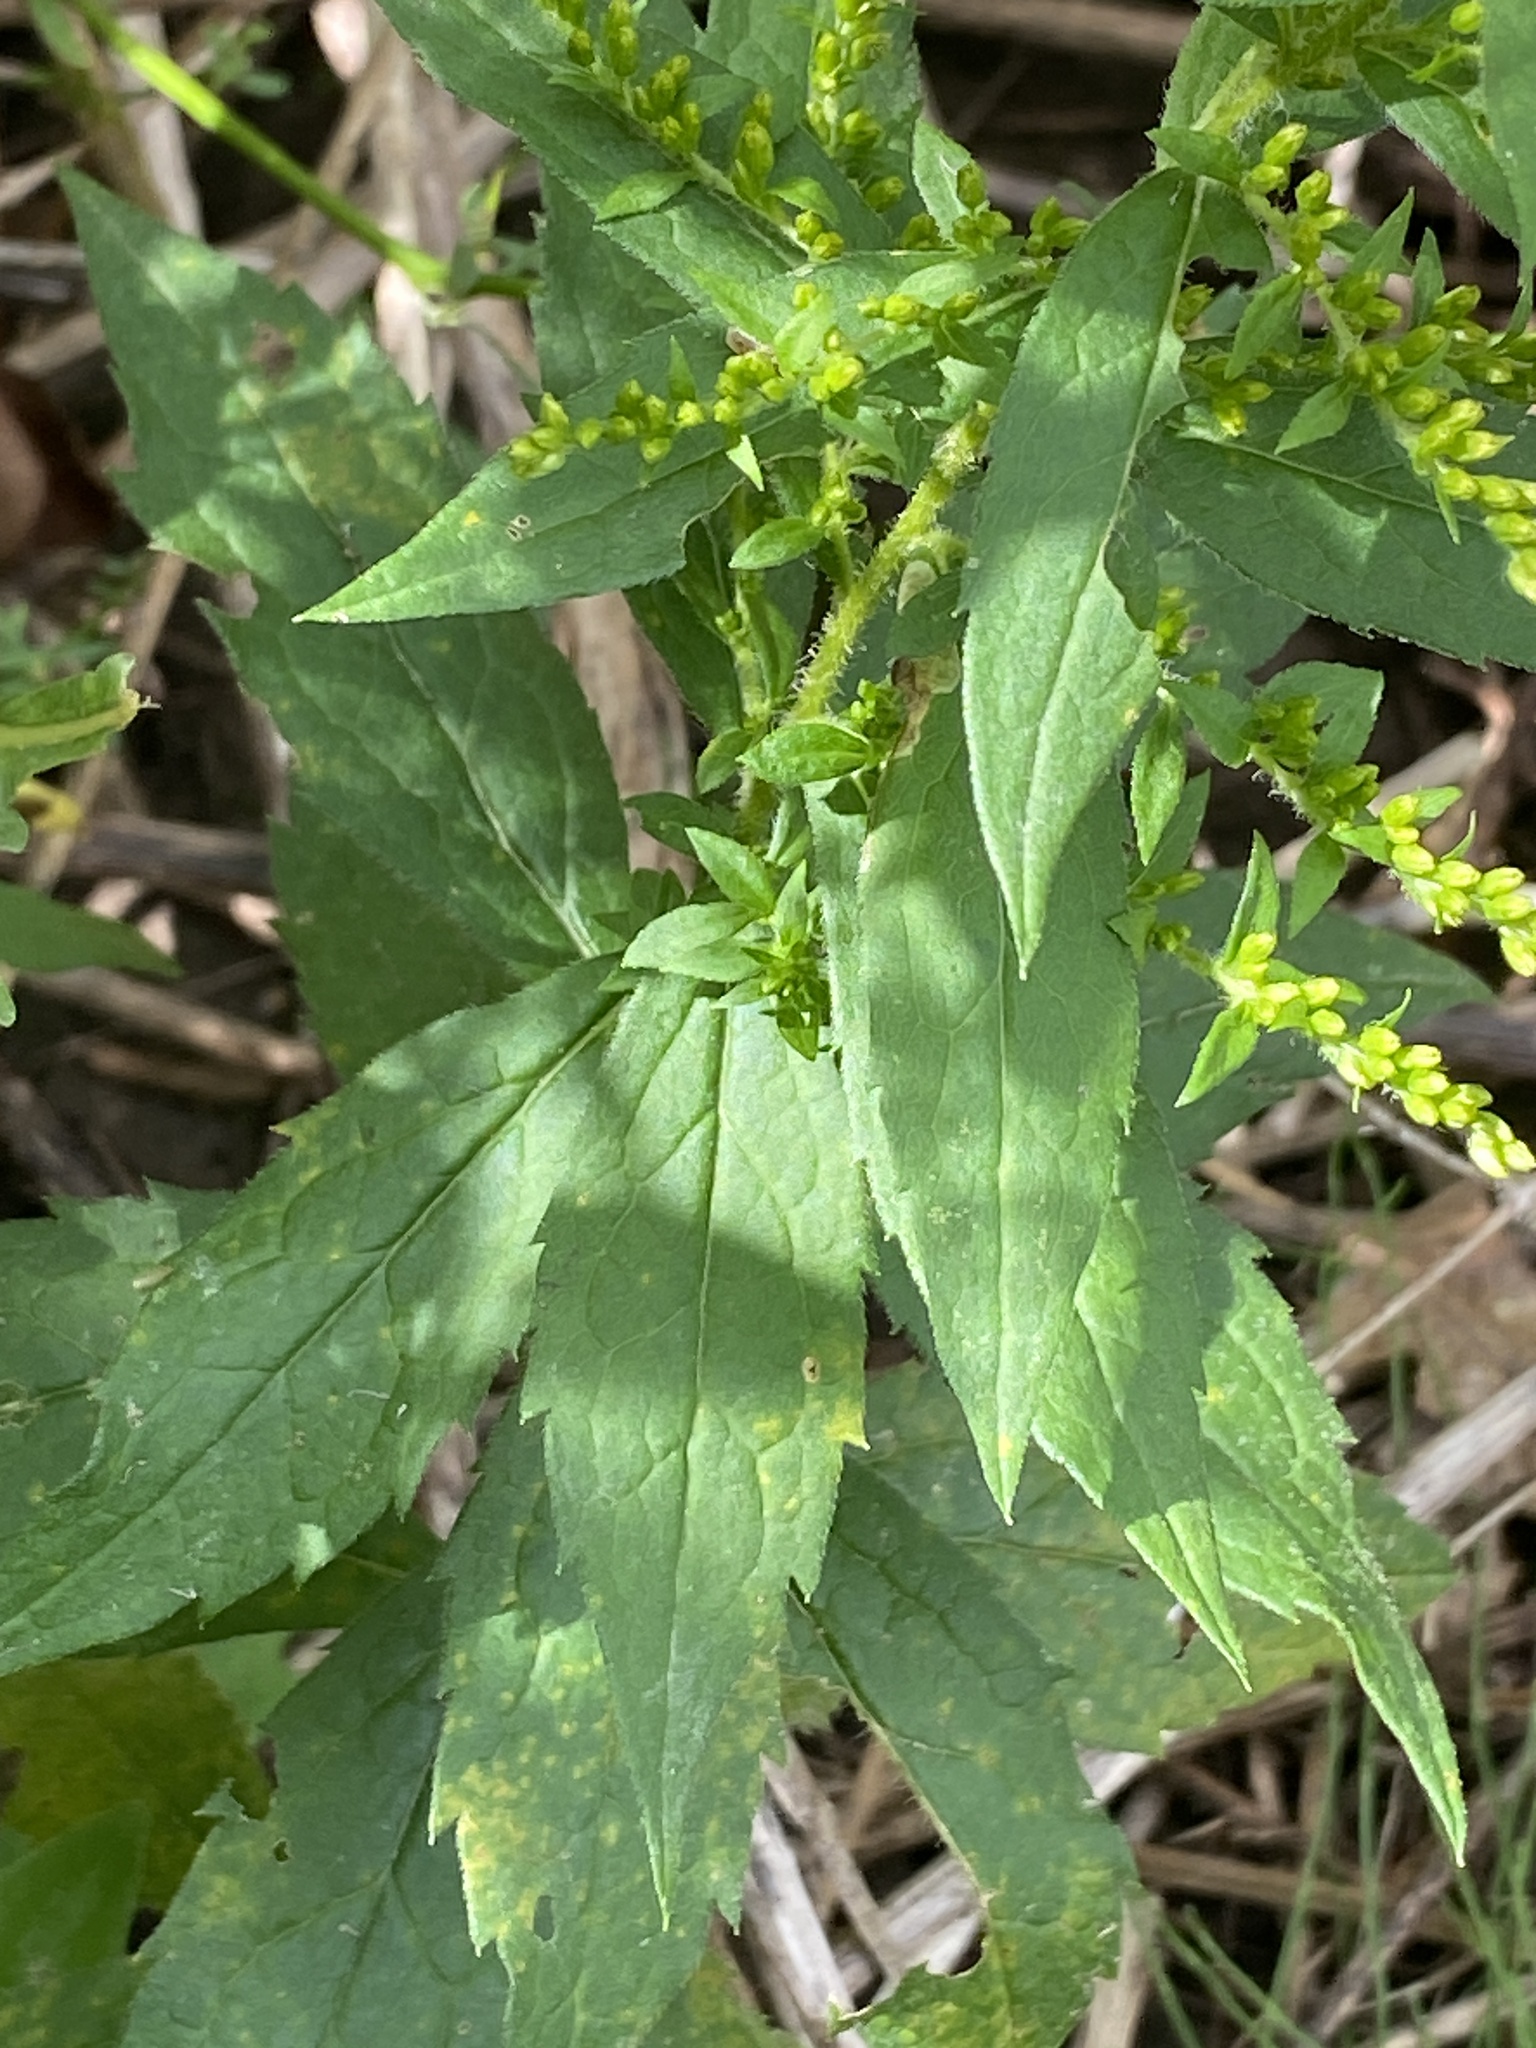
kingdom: Plantae
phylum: Tracheophyta
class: Magnoliopsida
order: Asterales
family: Asteraceae
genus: Solidago
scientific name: Solidago rugosa
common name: Rough-stemmed goldenrod
